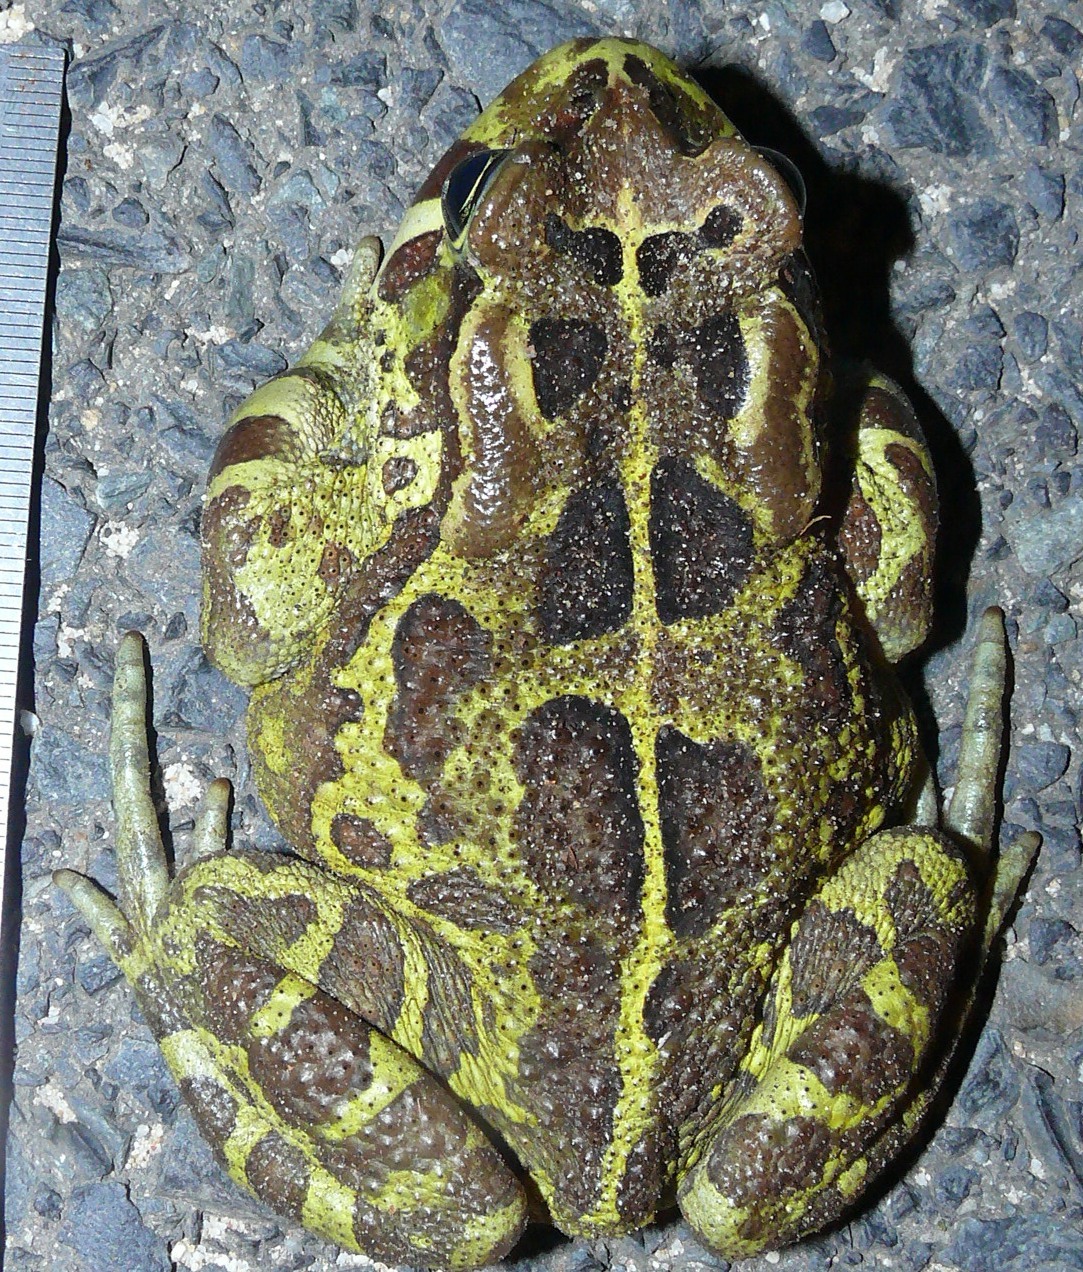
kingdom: Animalia
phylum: Chordata
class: Amphibia
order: Anura
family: Bufonidae
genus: Sclerophrys
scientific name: Sclerophrys pantherina
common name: Panther toad
